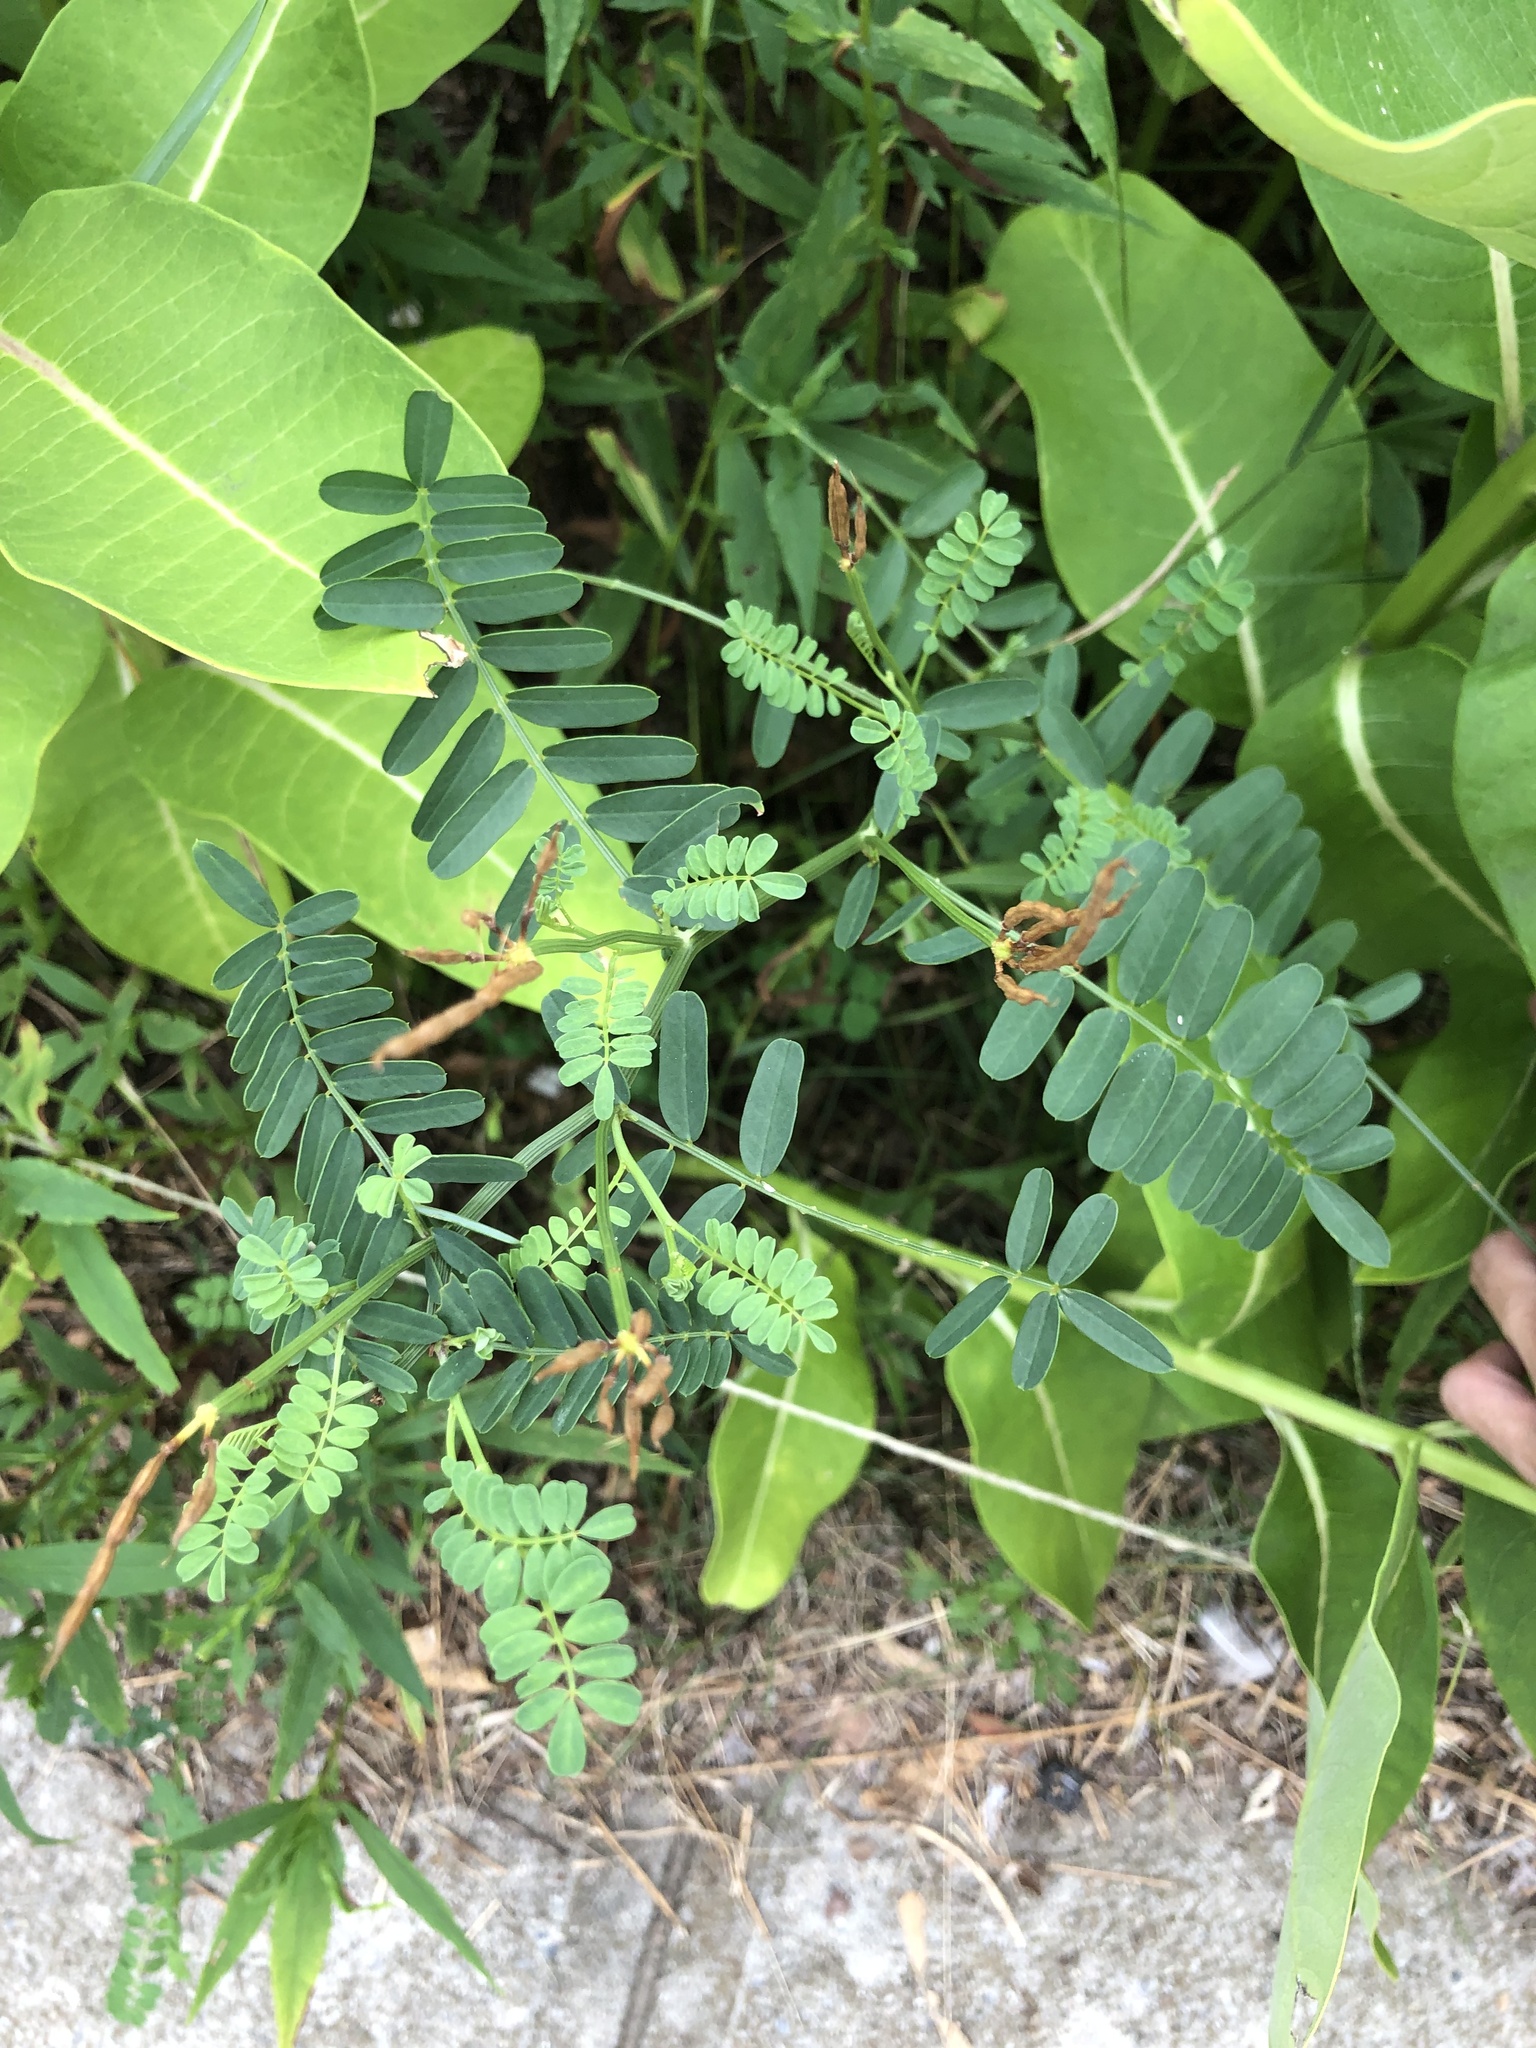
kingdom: Plantae
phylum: Tracheophyta
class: Magnoliopsida
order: Fabales
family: Fabaceae
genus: Coronilla
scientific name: Coronilla varia
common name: Crownvetch
